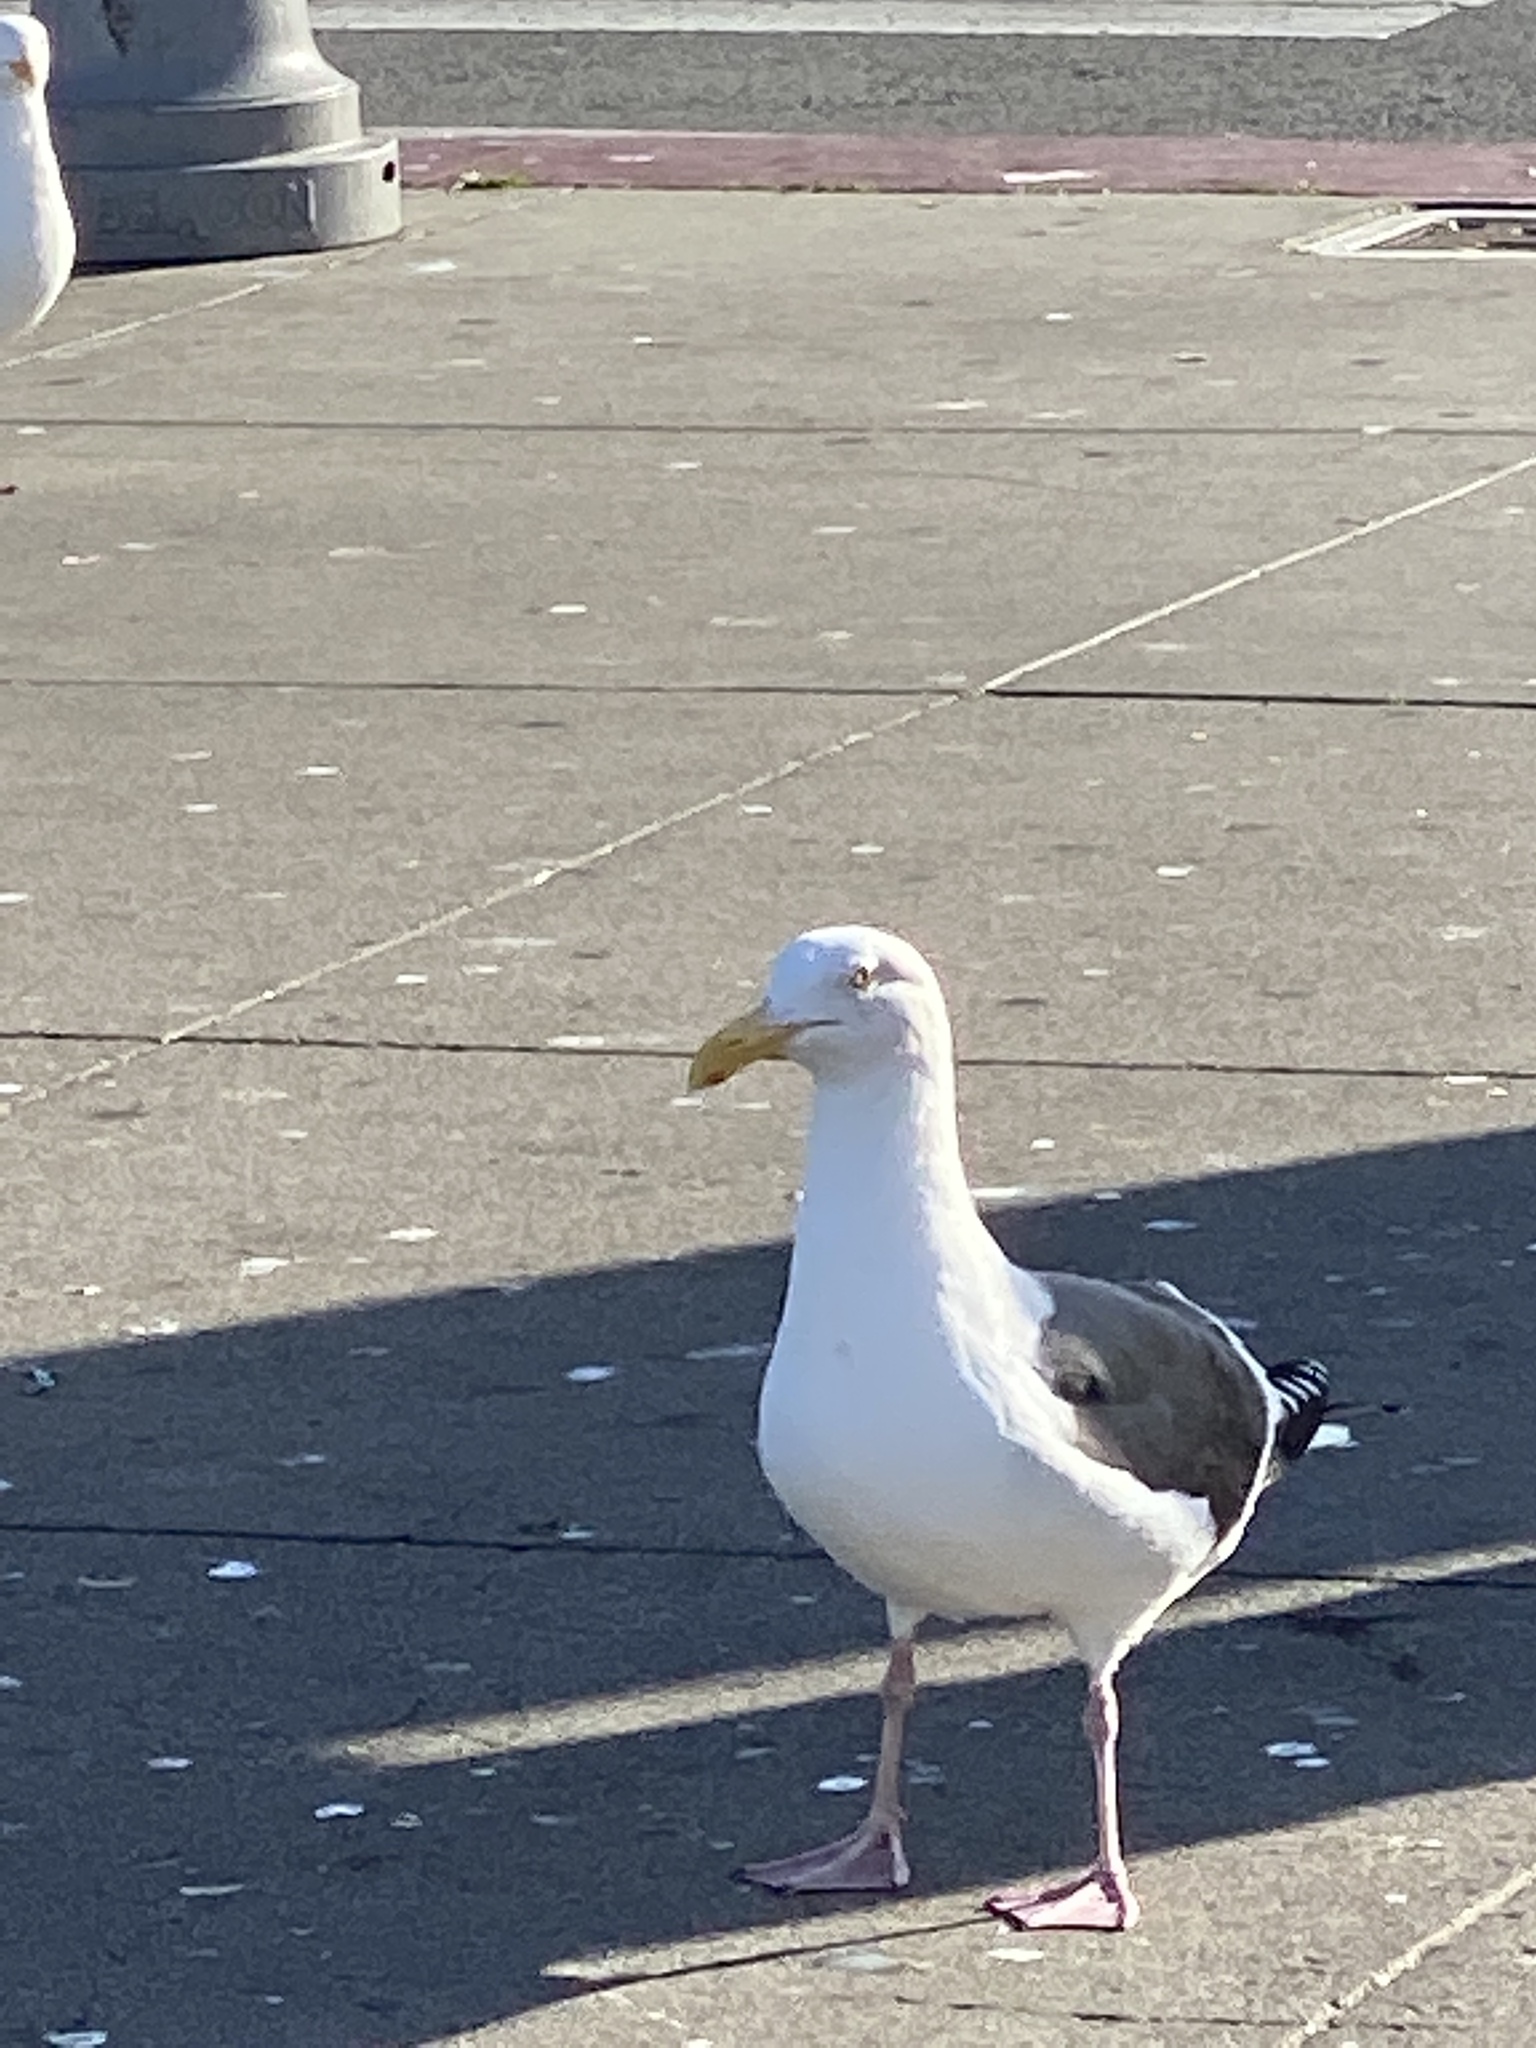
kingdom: Animalia
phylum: Chordata
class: Aves
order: Charadriiformes
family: Laridae
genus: Larus
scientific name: Larus occidentalis
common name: Western gull
